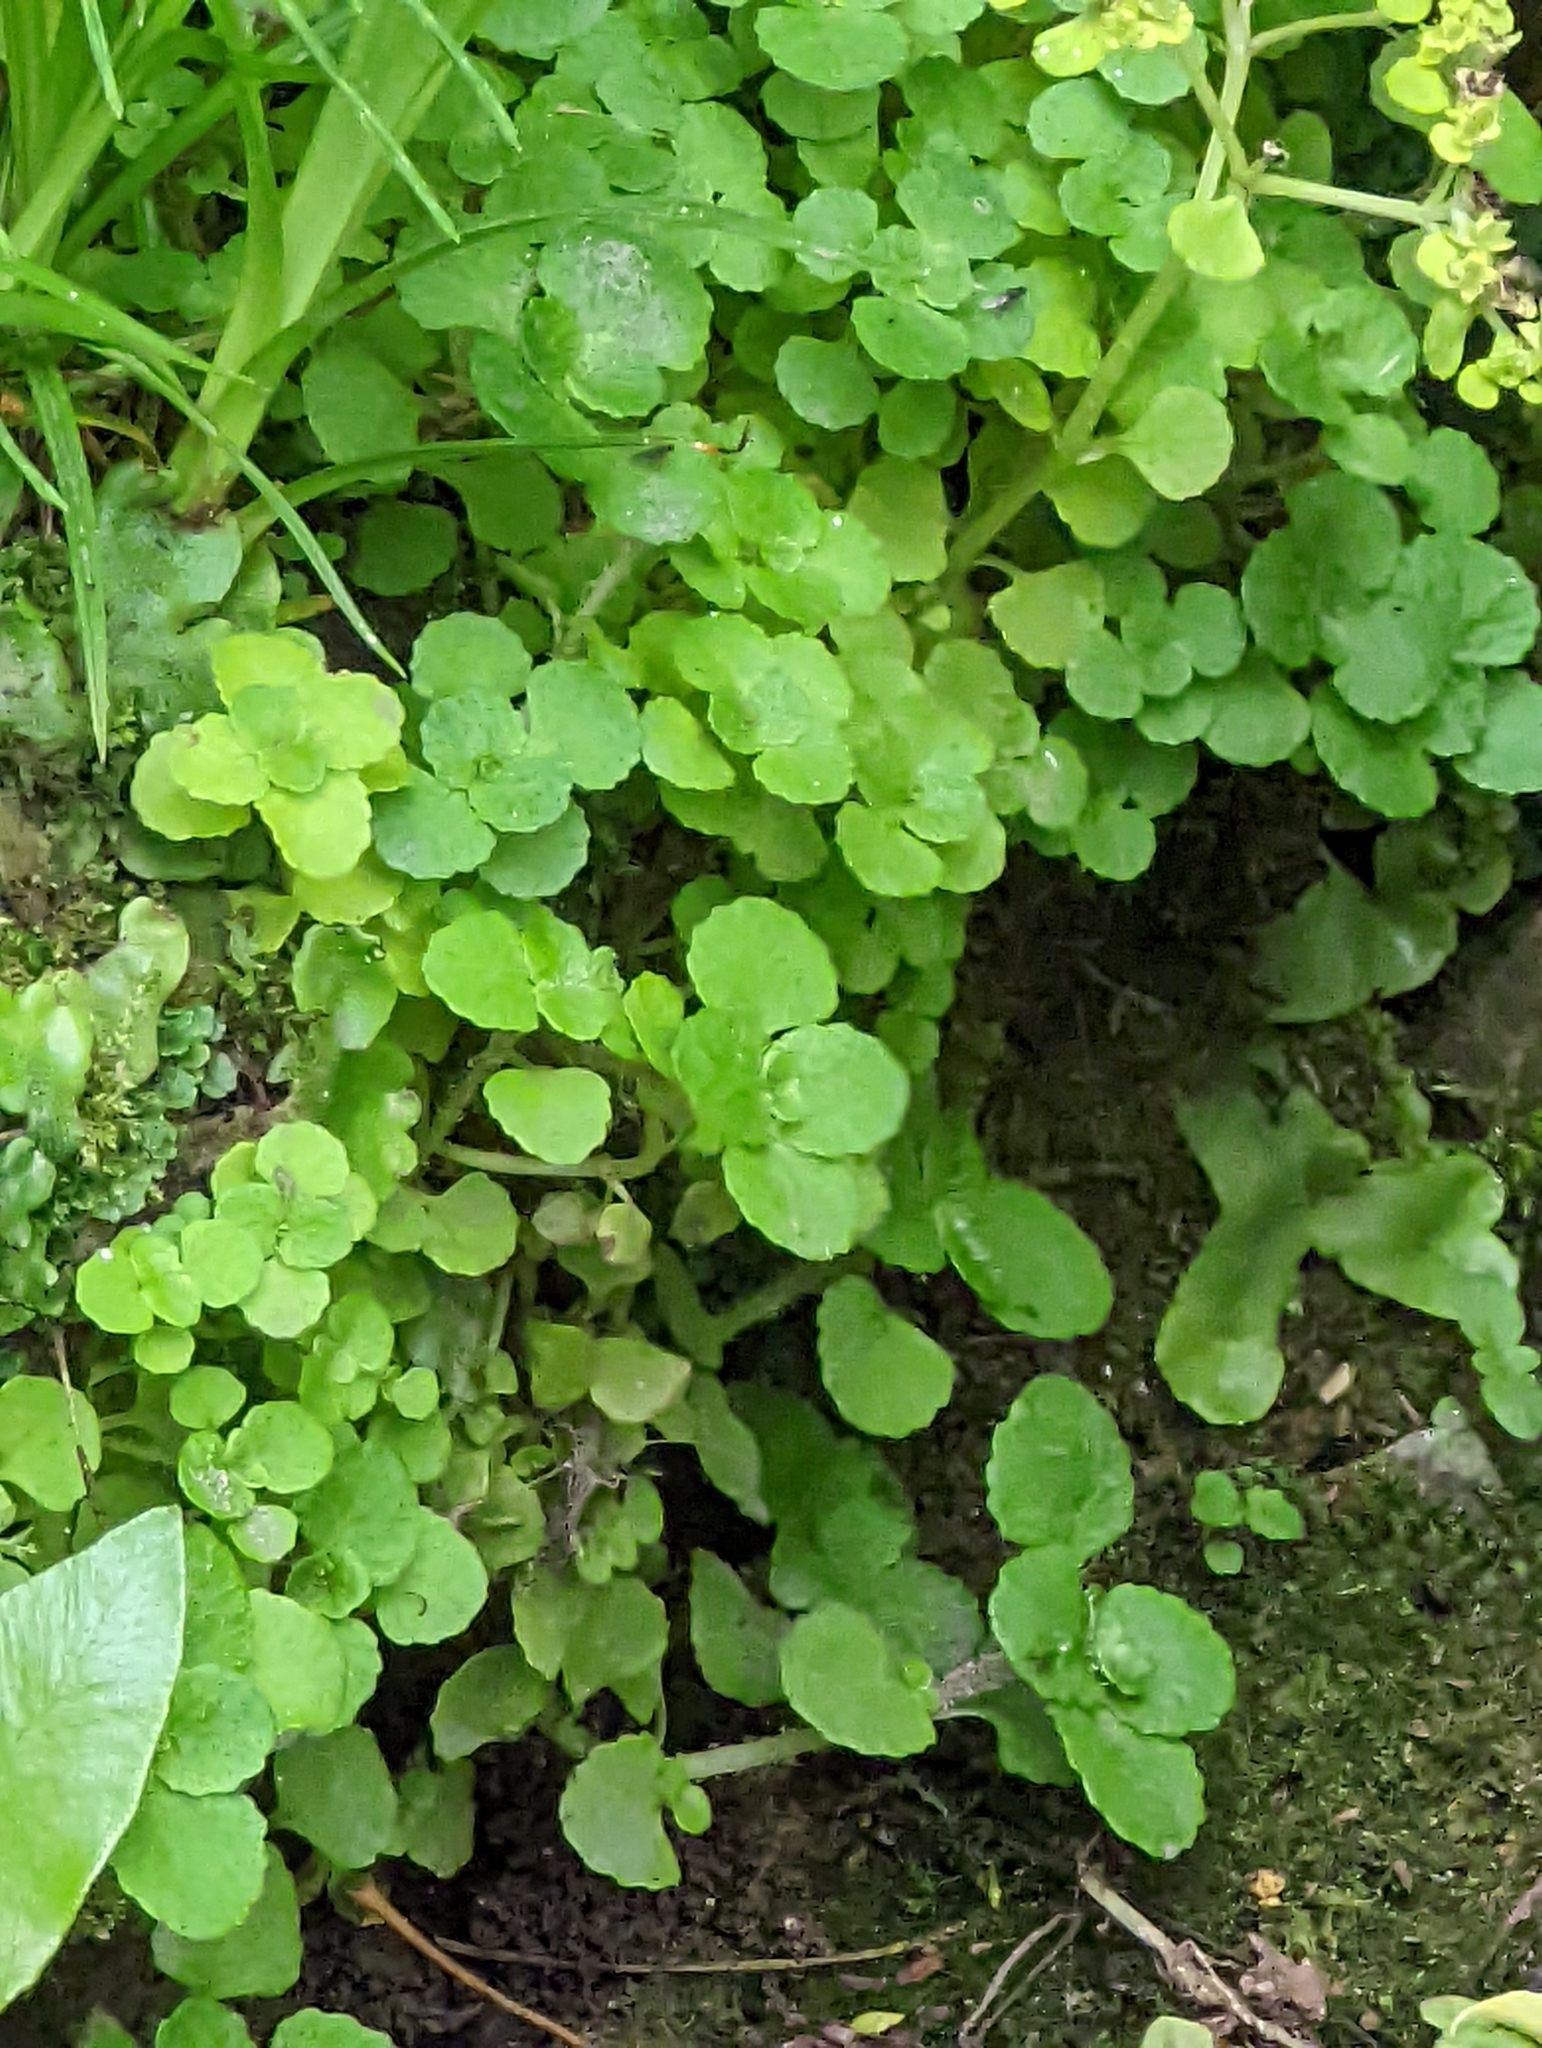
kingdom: Plantae
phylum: Tracheophyta
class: Magnoliopsida
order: Saxifragales
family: Saxifragaceae
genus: Chrysosplenium
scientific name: Chrysosplenium oppositifolium
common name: Opposite-leaved golden-saxifrage
